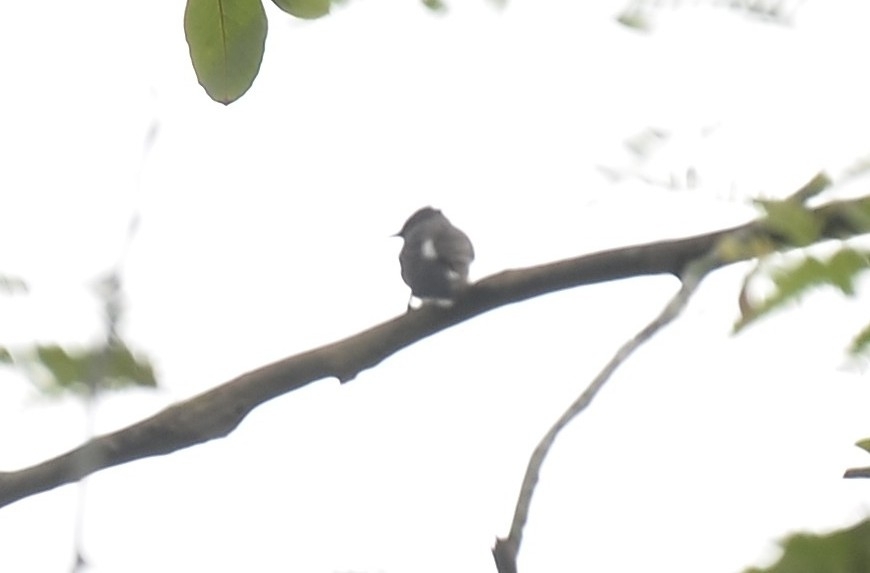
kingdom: Animalia
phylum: Chordata
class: Aves
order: Passeriformes
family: Pycnonotidae
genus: Pycnonotus
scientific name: Pycnonotus cafer
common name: Red-vented bulbul
